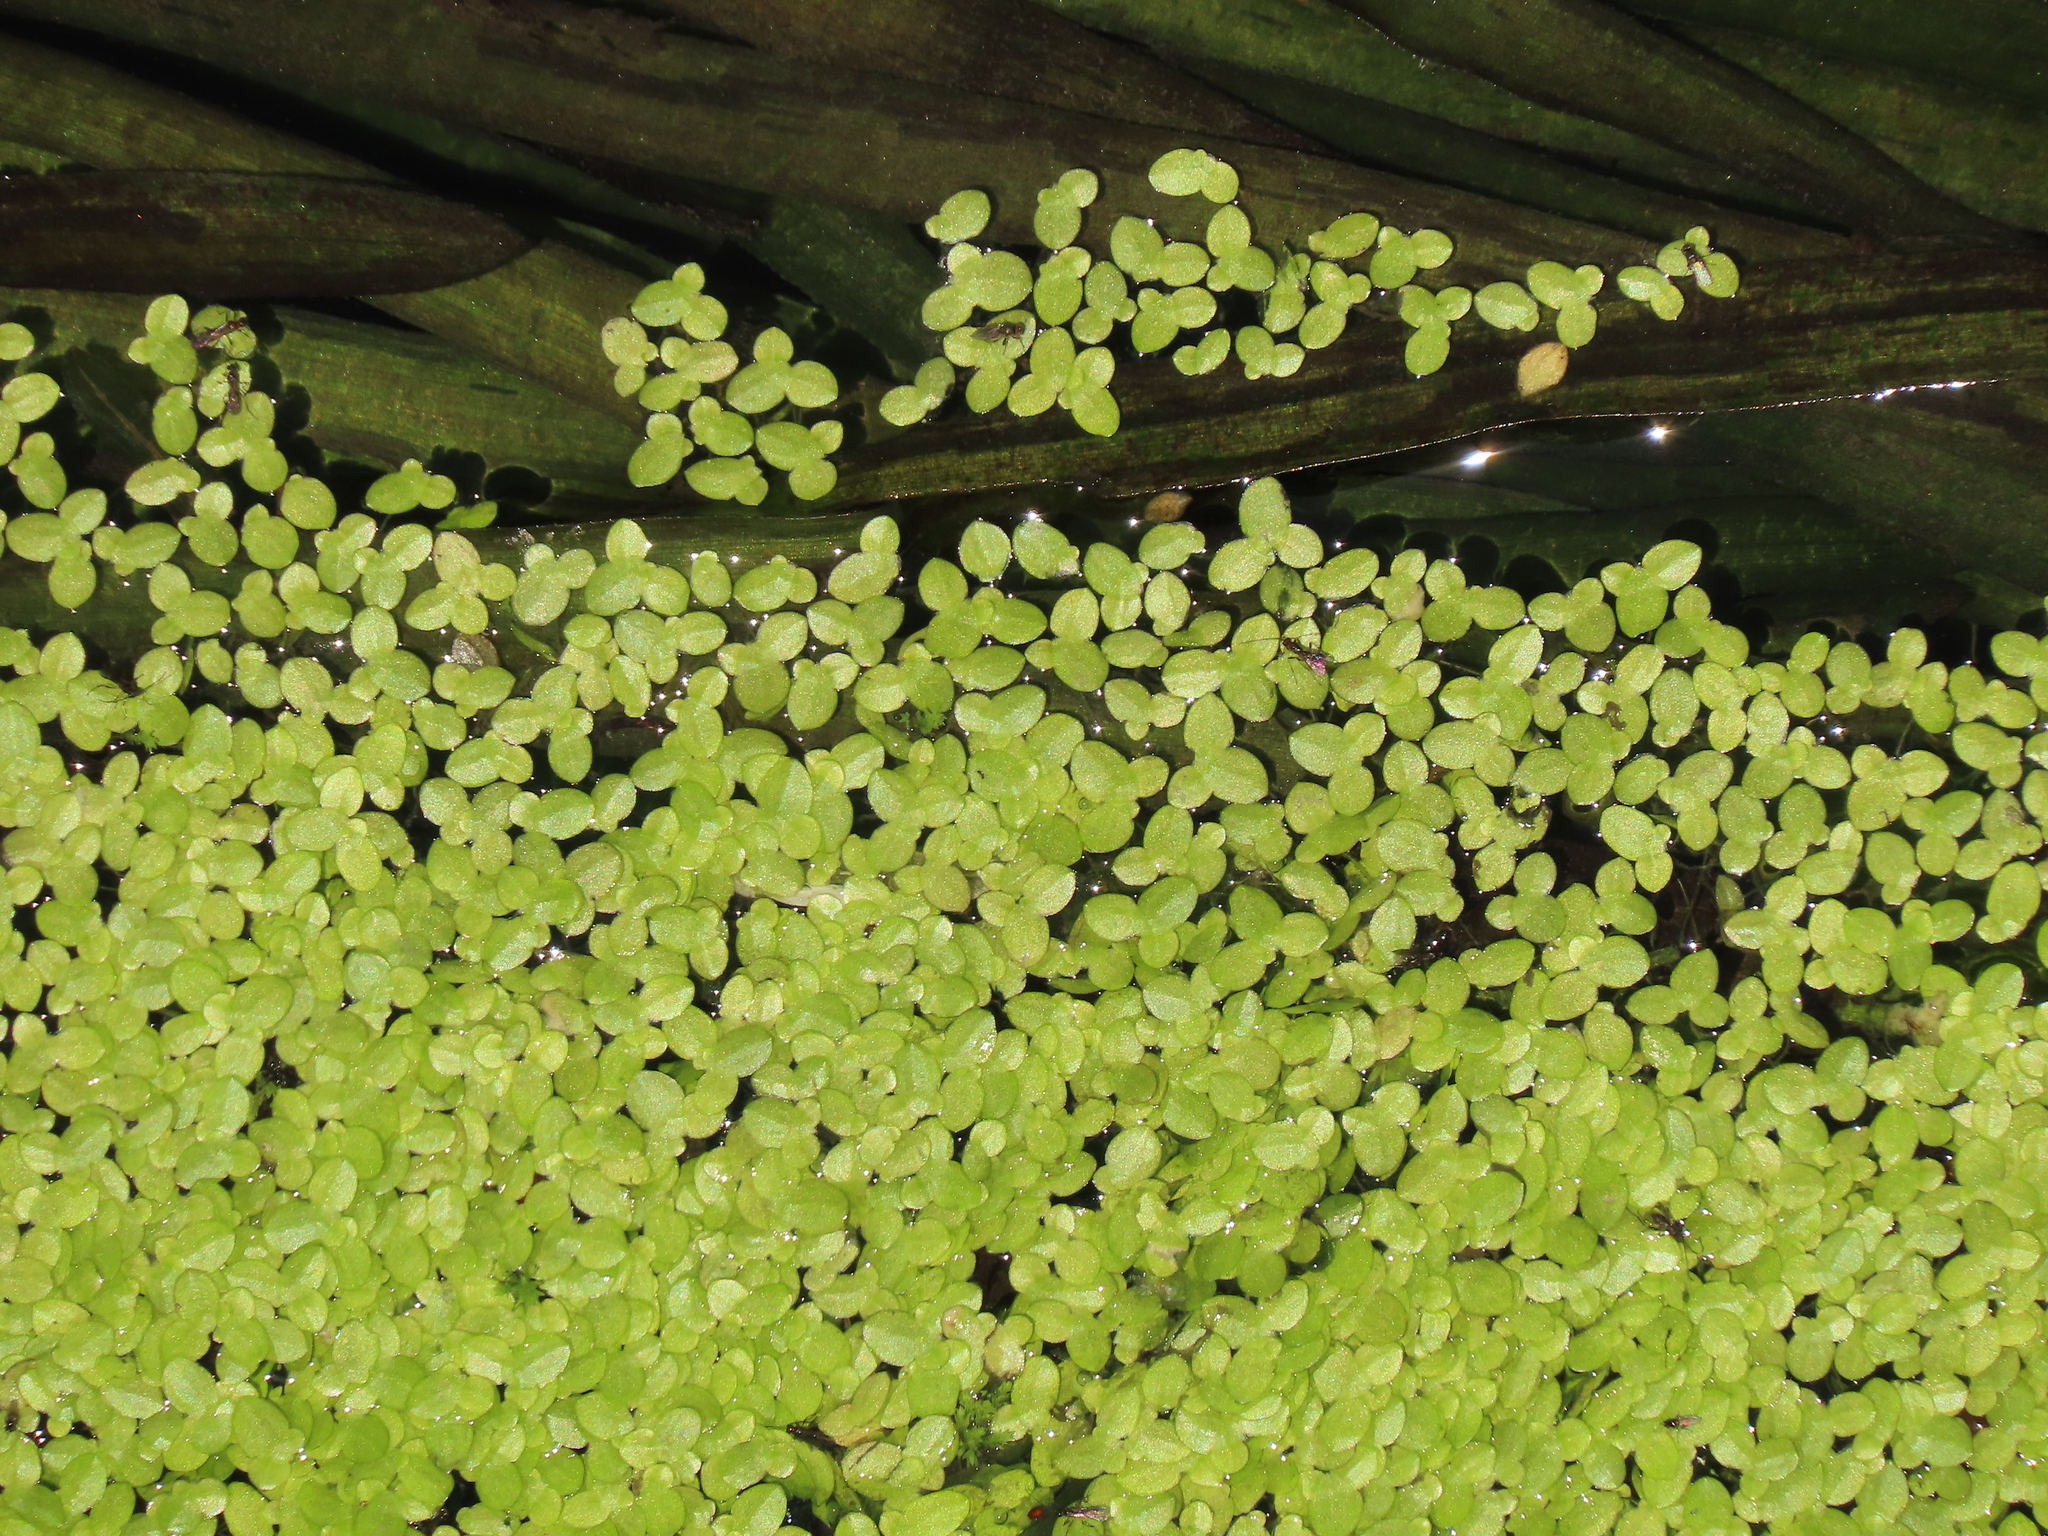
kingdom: Plantae
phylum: Tracheophyta
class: Liliopsida
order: Alismatales
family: Araceae
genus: Lemna
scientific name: Lemna aequinoctialis
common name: Duckweed
